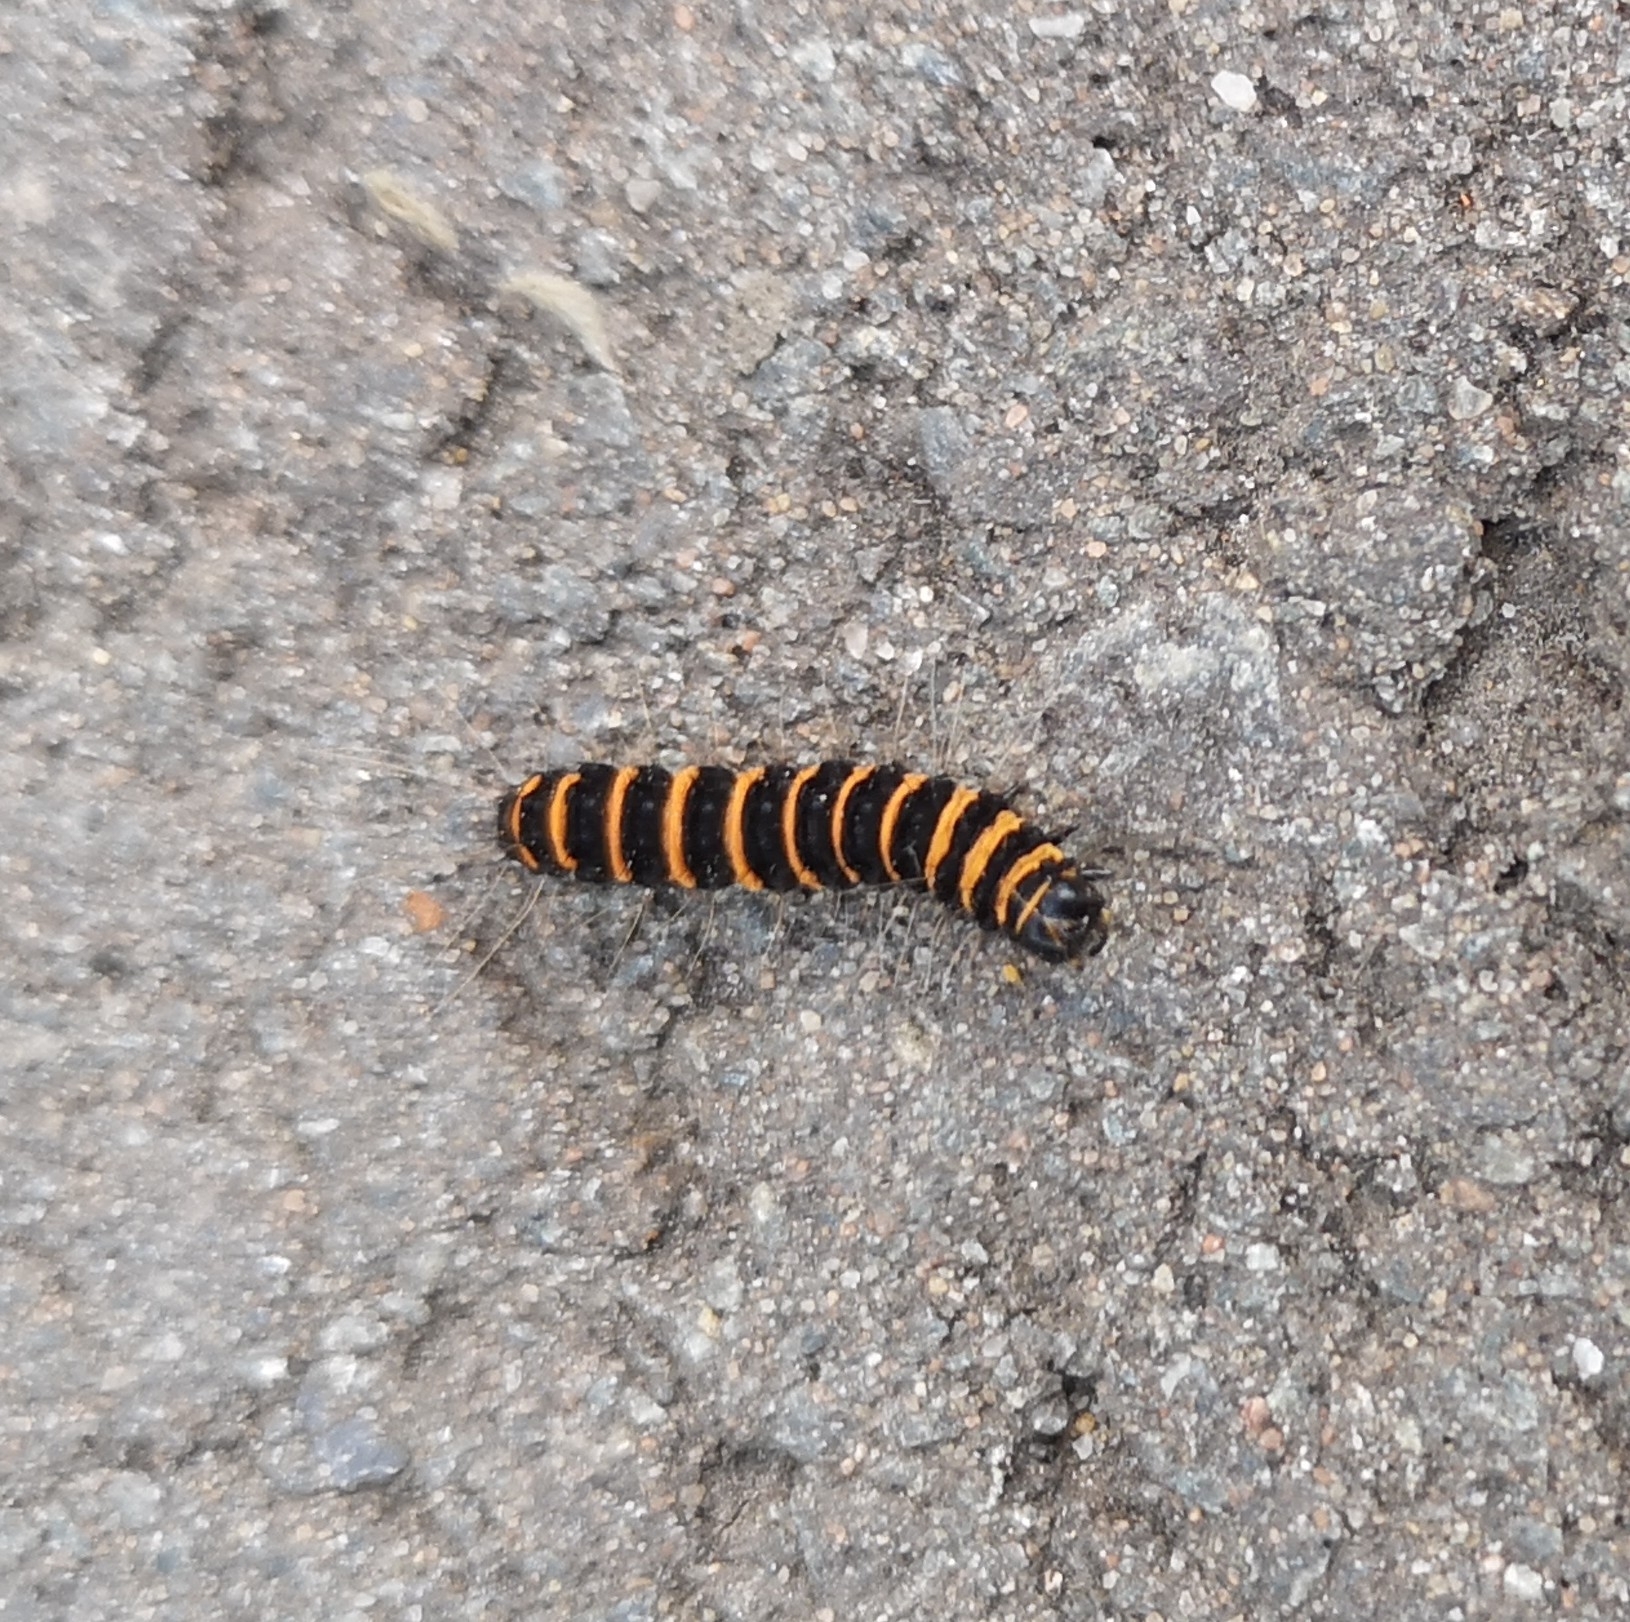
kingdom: Animalia
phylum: Arthropoda
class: Insecta
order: Lepidoptera
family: Erebidae
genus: Tyria
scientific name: Tyria jacobaeae
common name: Cinnabar
